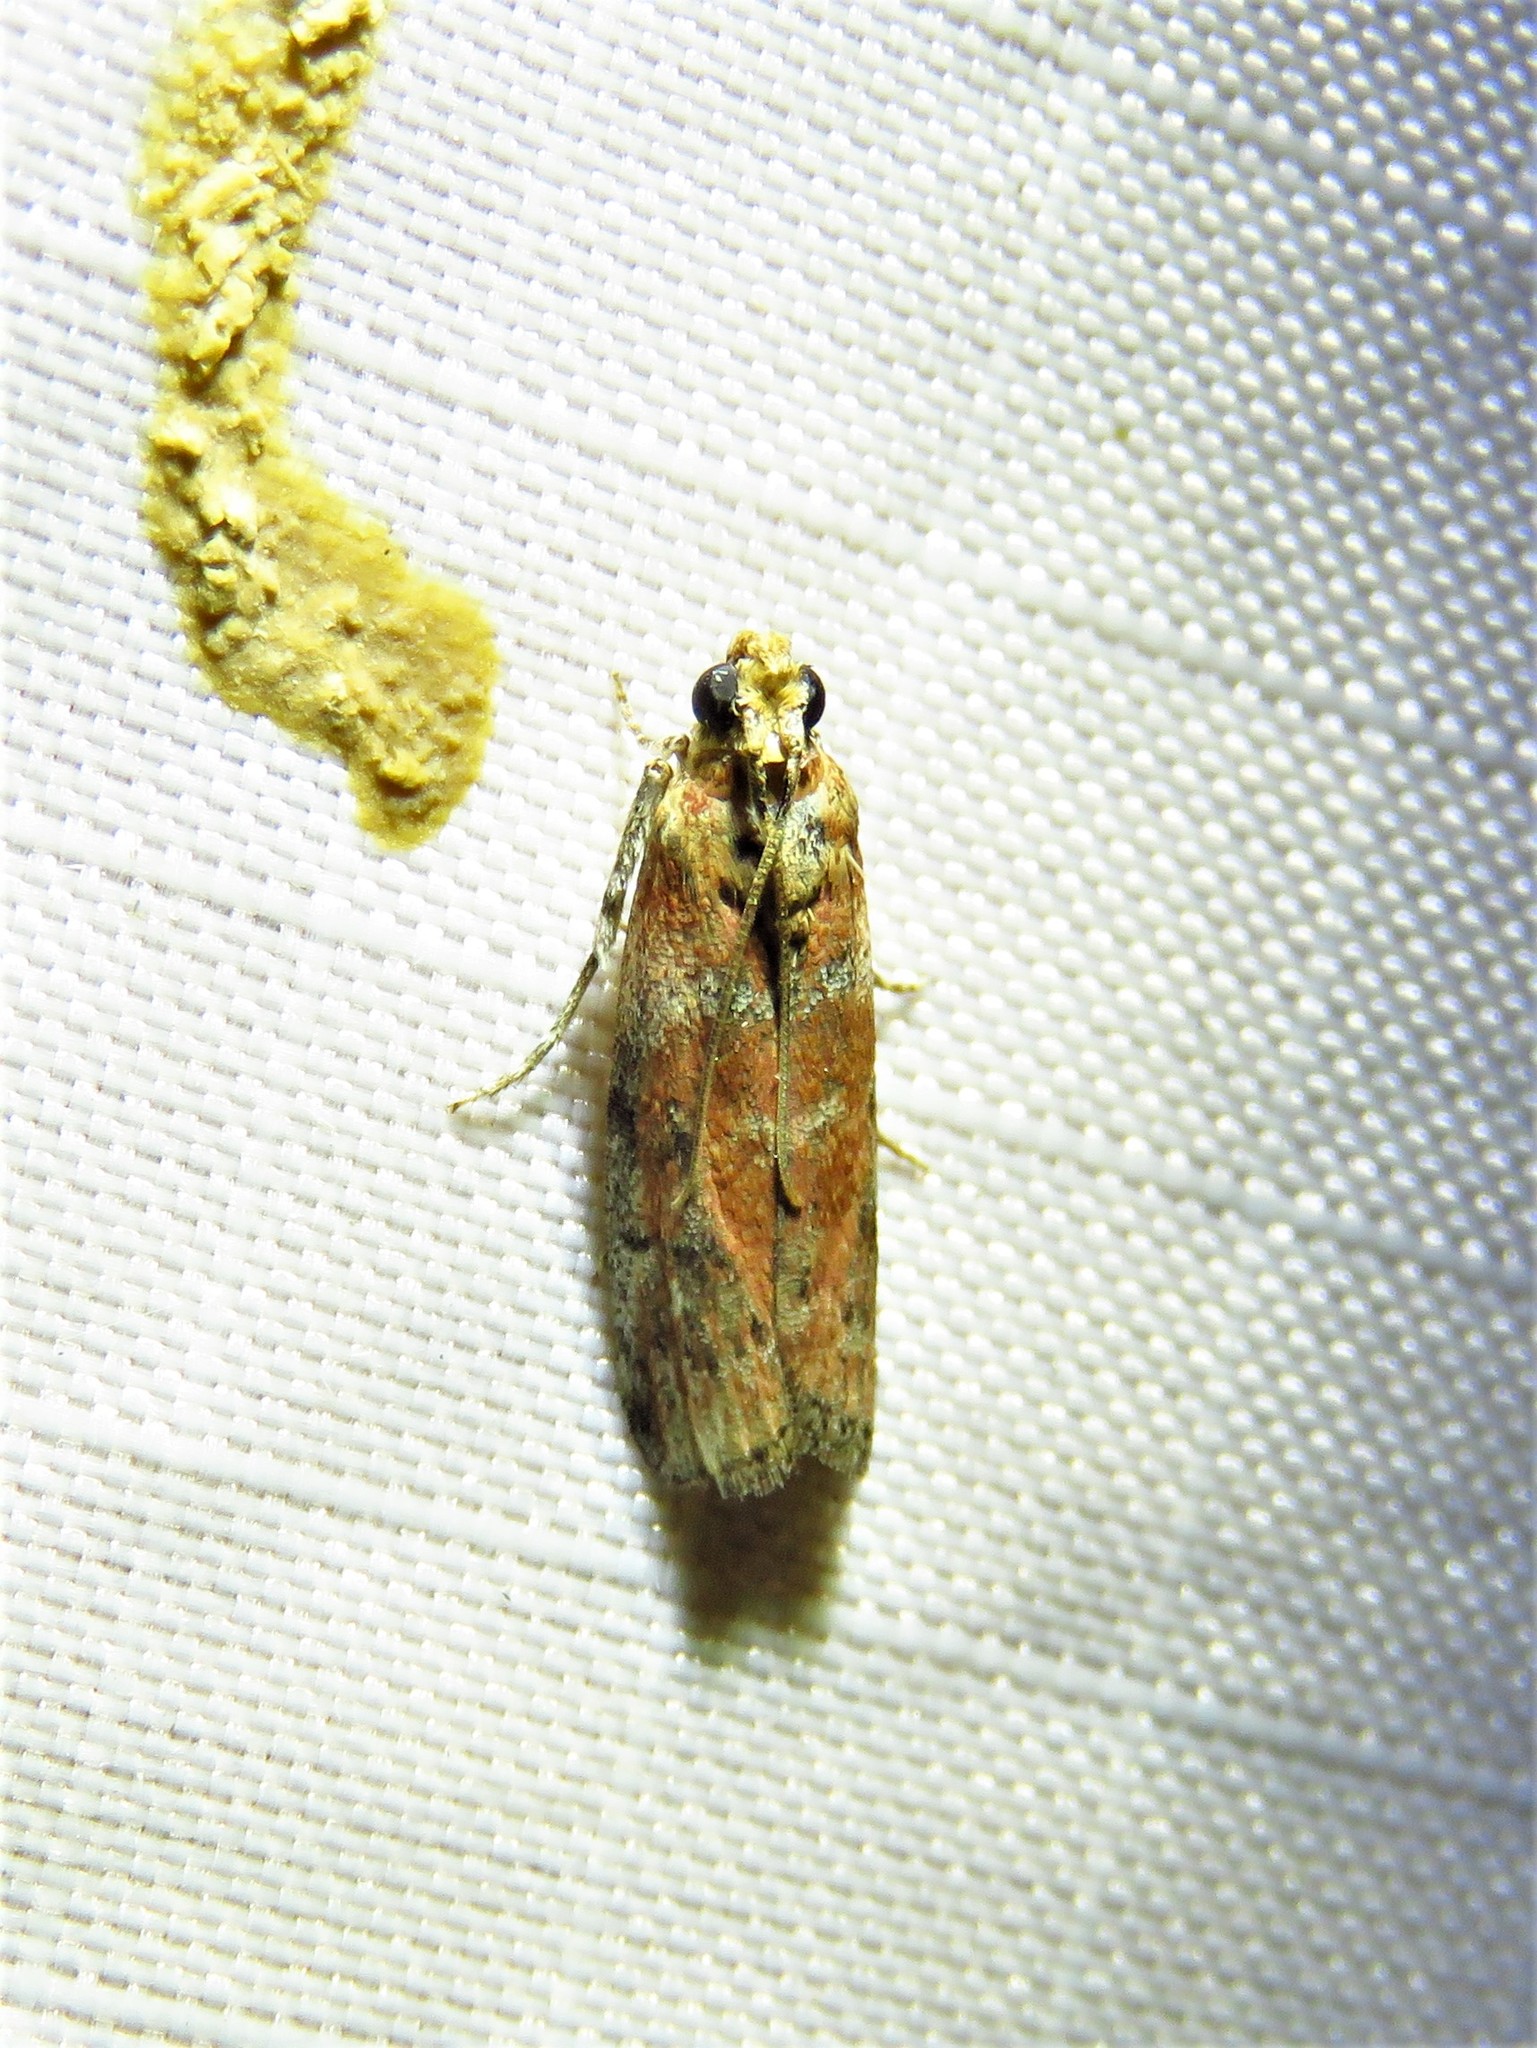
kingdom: Animalia
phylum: Arthropoda
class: Insecta
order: Lepidoptera
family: Pyralidae
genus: Sciota
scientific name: Sciota
